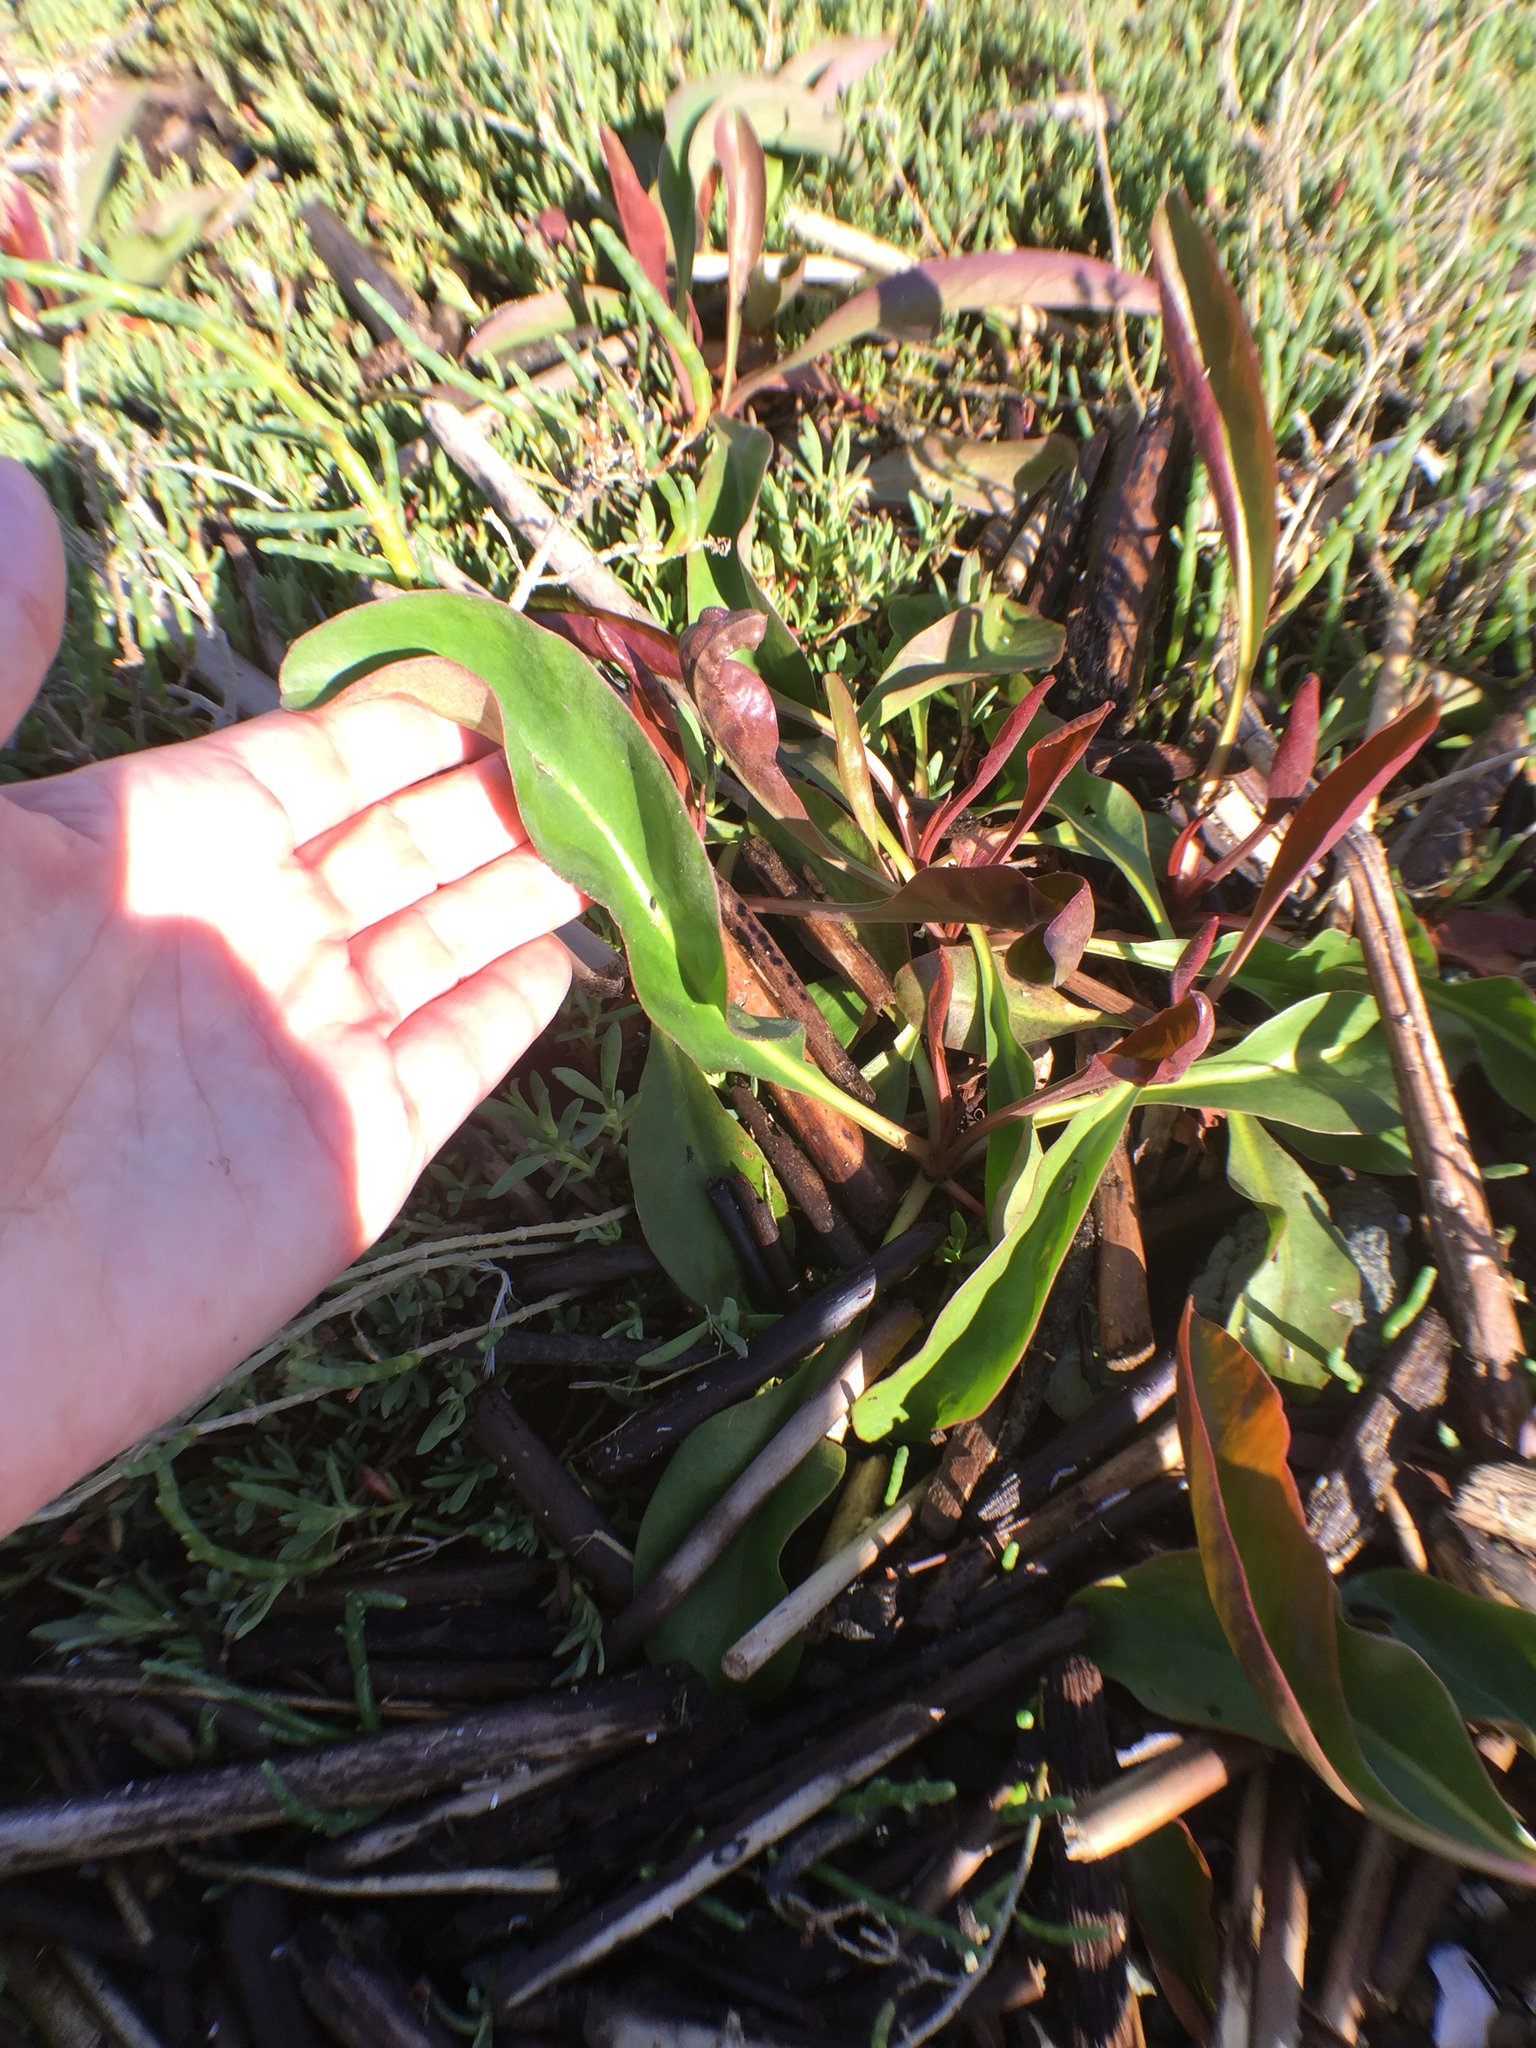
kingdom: Plantae
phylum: Tracheophyta
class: Magnoliopsida
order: Caryophyllales
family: Plumbaginaceae
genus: Limonium
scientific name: Limonium californicum
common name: Marsh-rosemary
